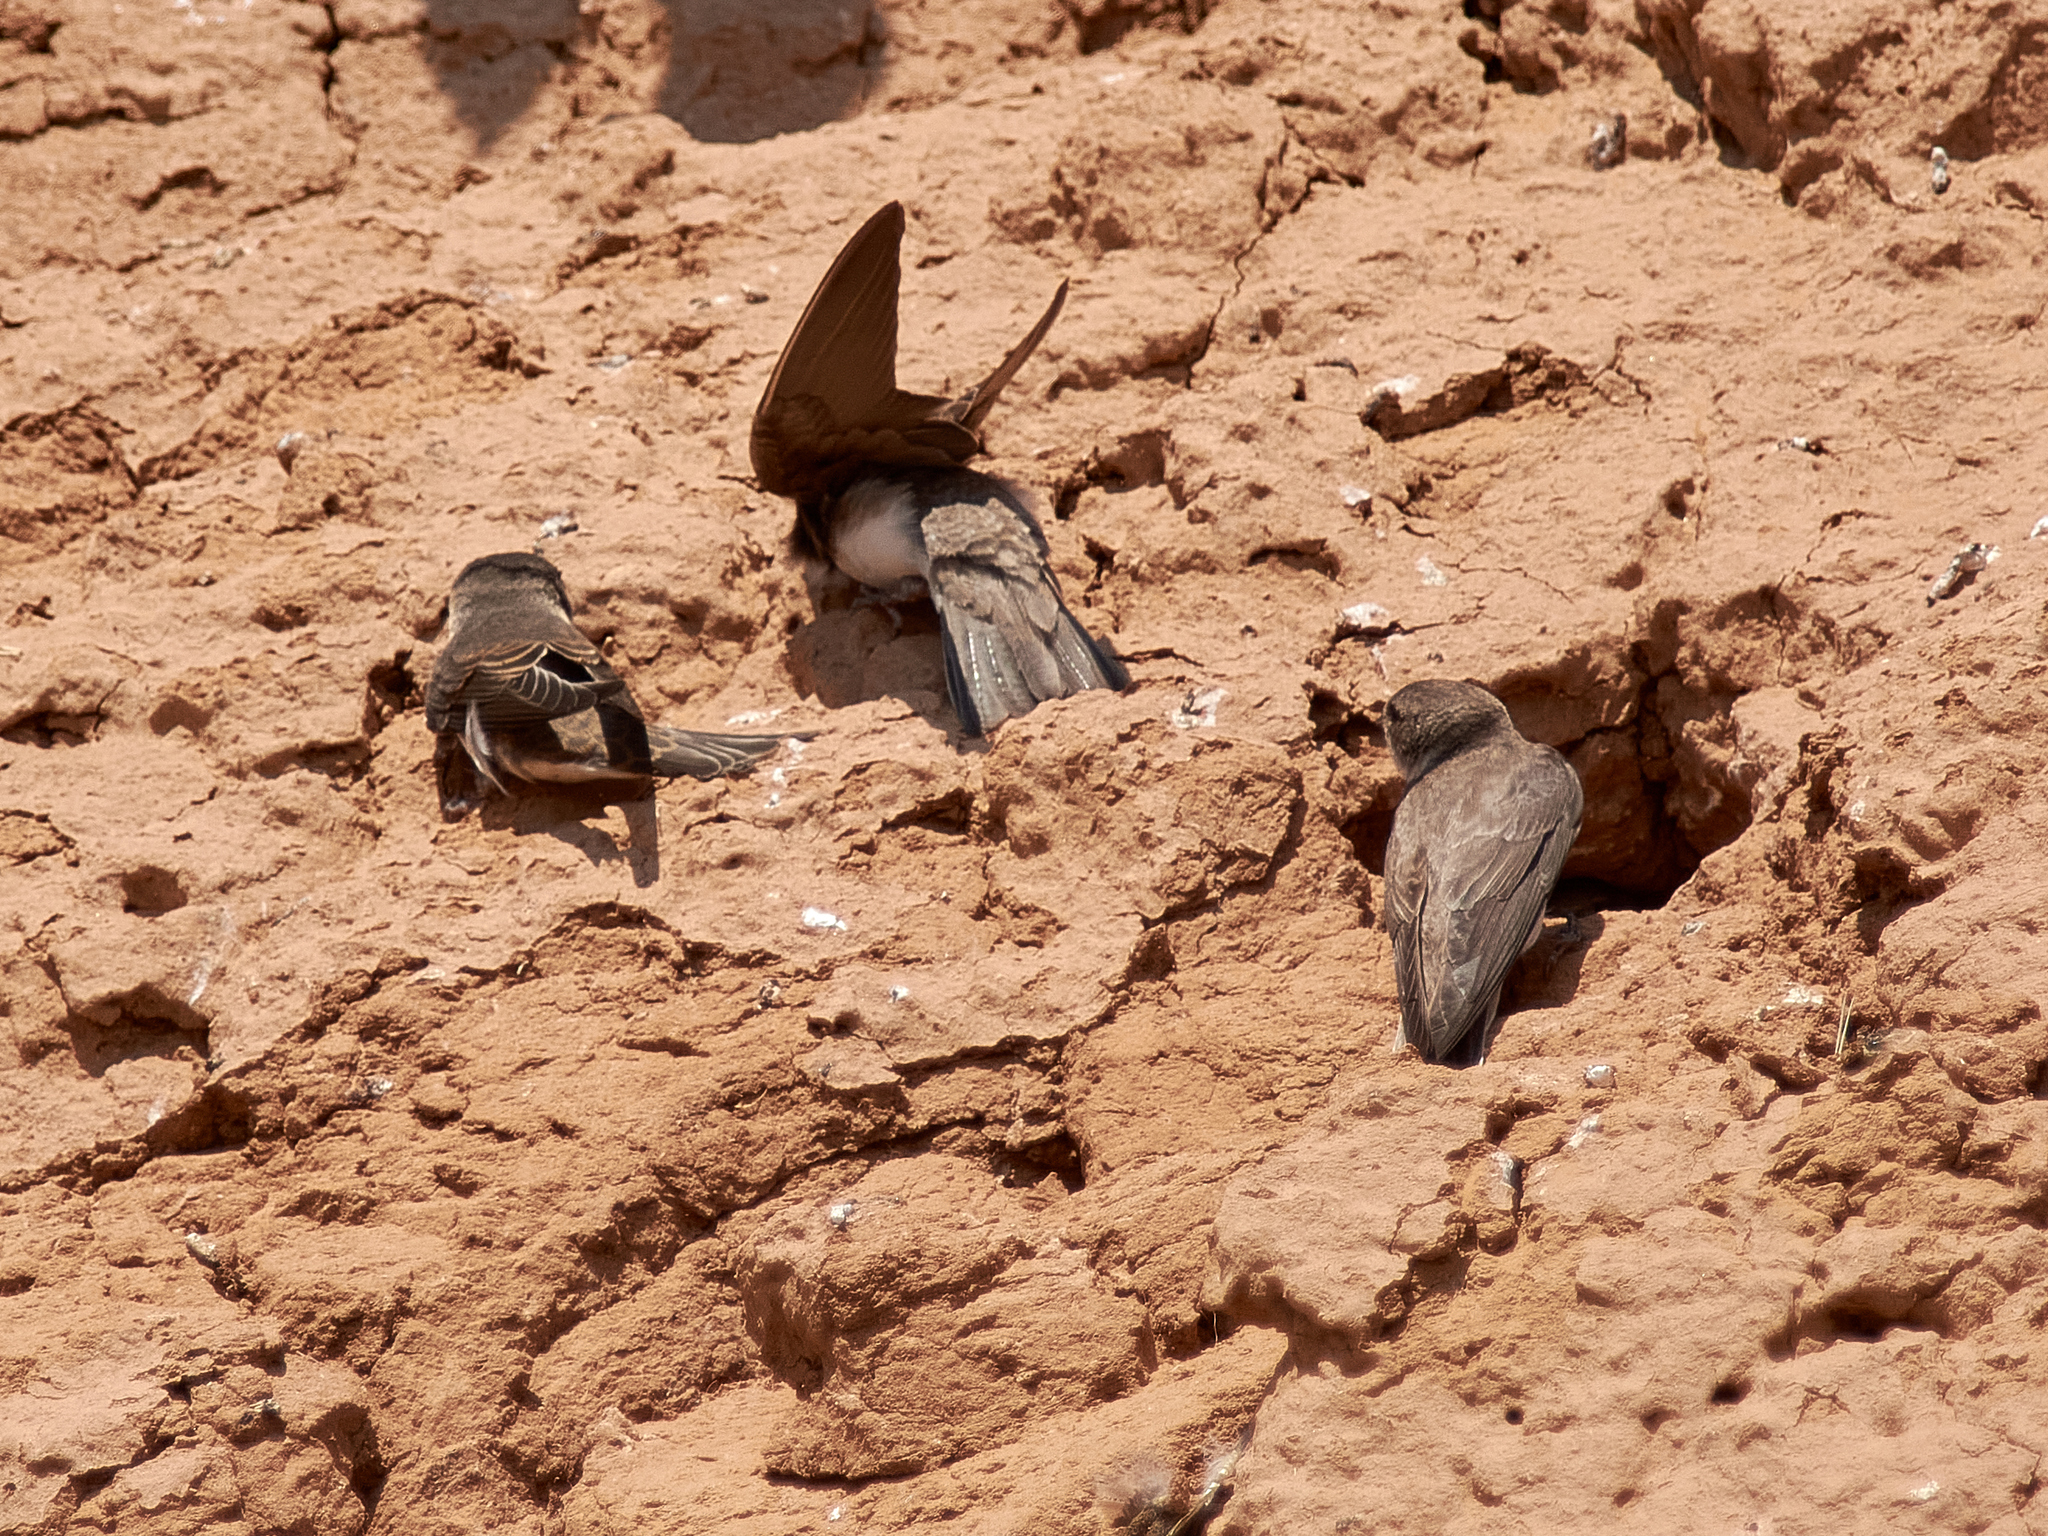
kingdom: Animalia
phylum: Chordata
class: Aves
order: Passeriformes
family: Hirundinidae
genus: Riparia
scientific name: Riparia riparia
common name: Sand martin
